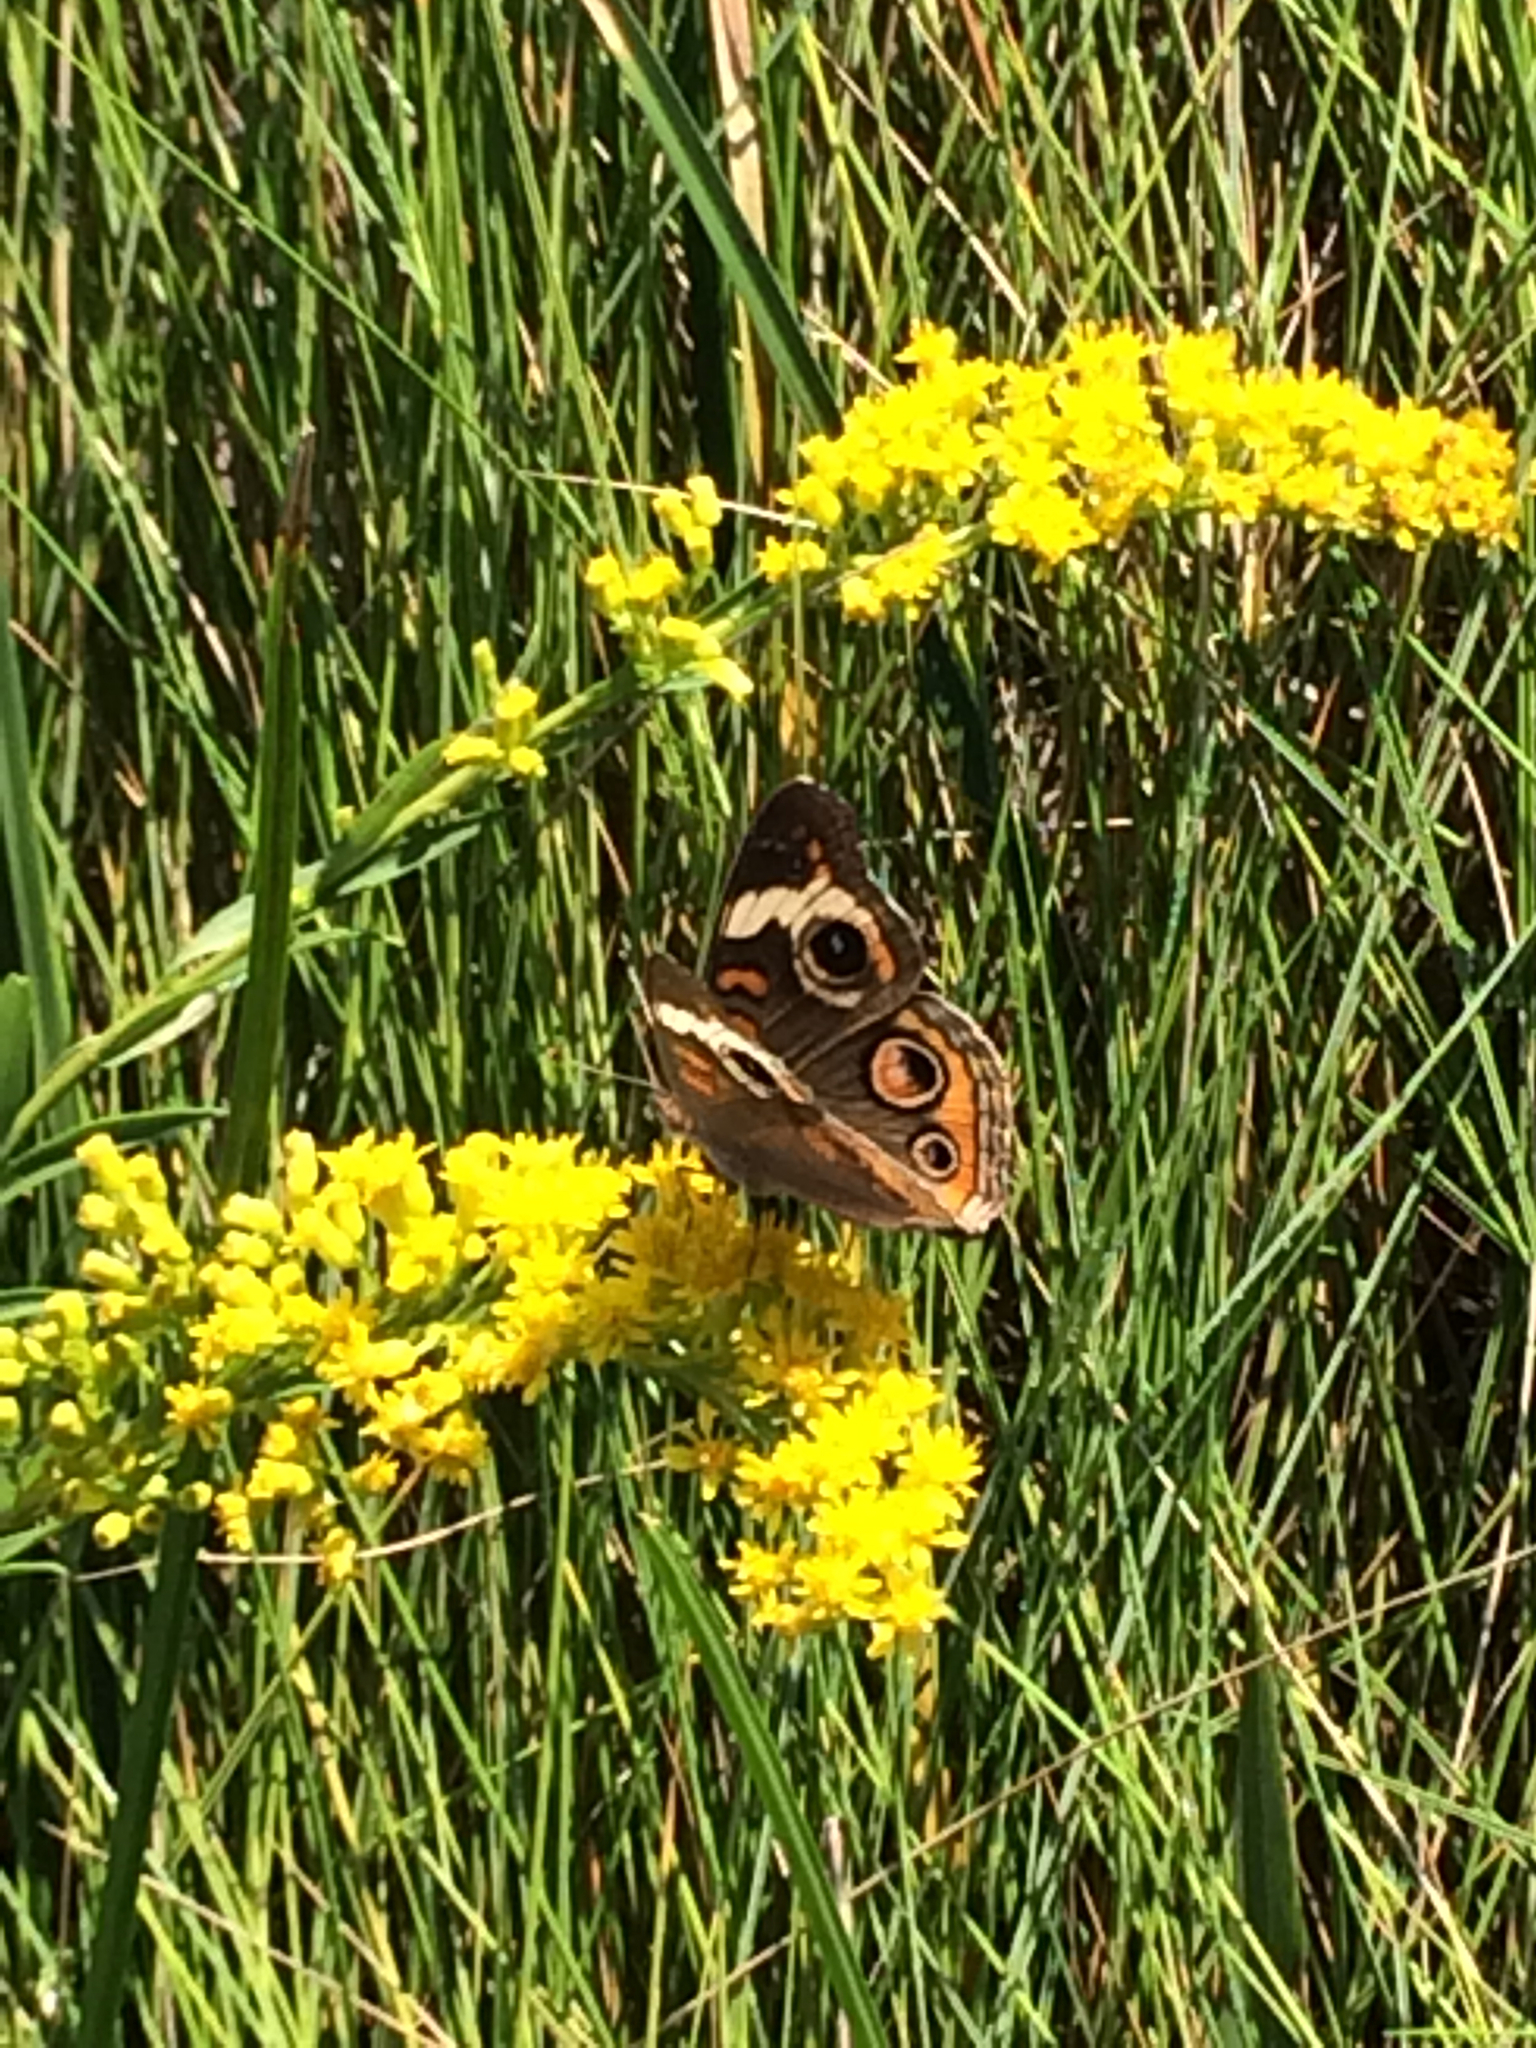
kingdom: Animalia
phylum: Arthropoda
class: Insecta
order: Lepidoptera
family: Nymphalidae
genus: Junonia
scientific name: Junonia coenia
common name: Common buckeye
